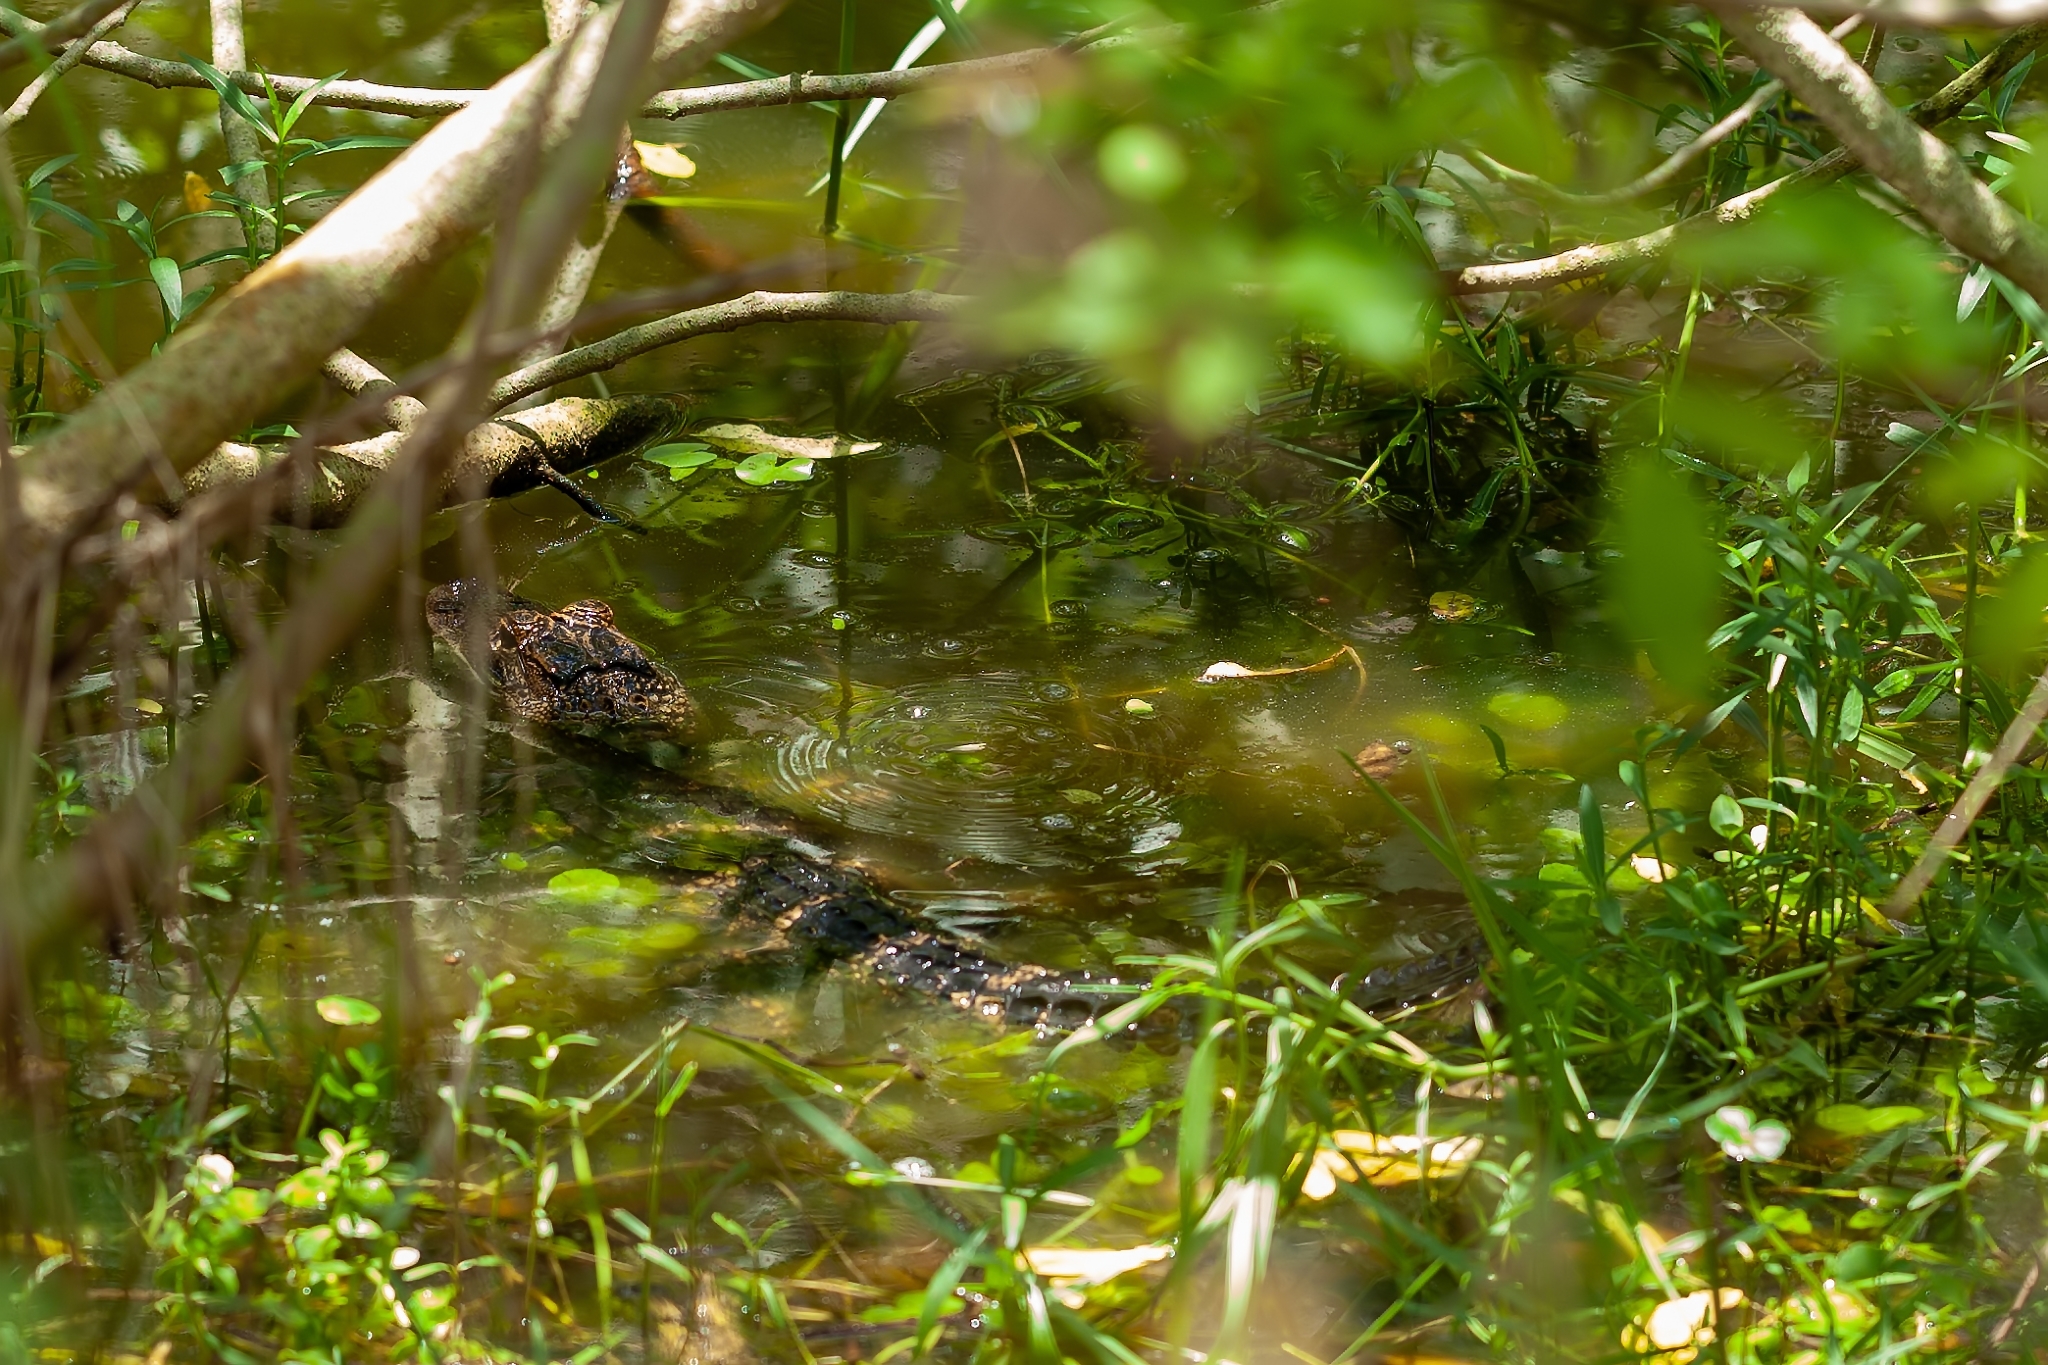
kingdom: Animalia
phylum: Chordata
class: Crocodylia
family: Alligatoridae
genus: Alligator
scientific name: Alligator mississippiensis
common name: American alligator
